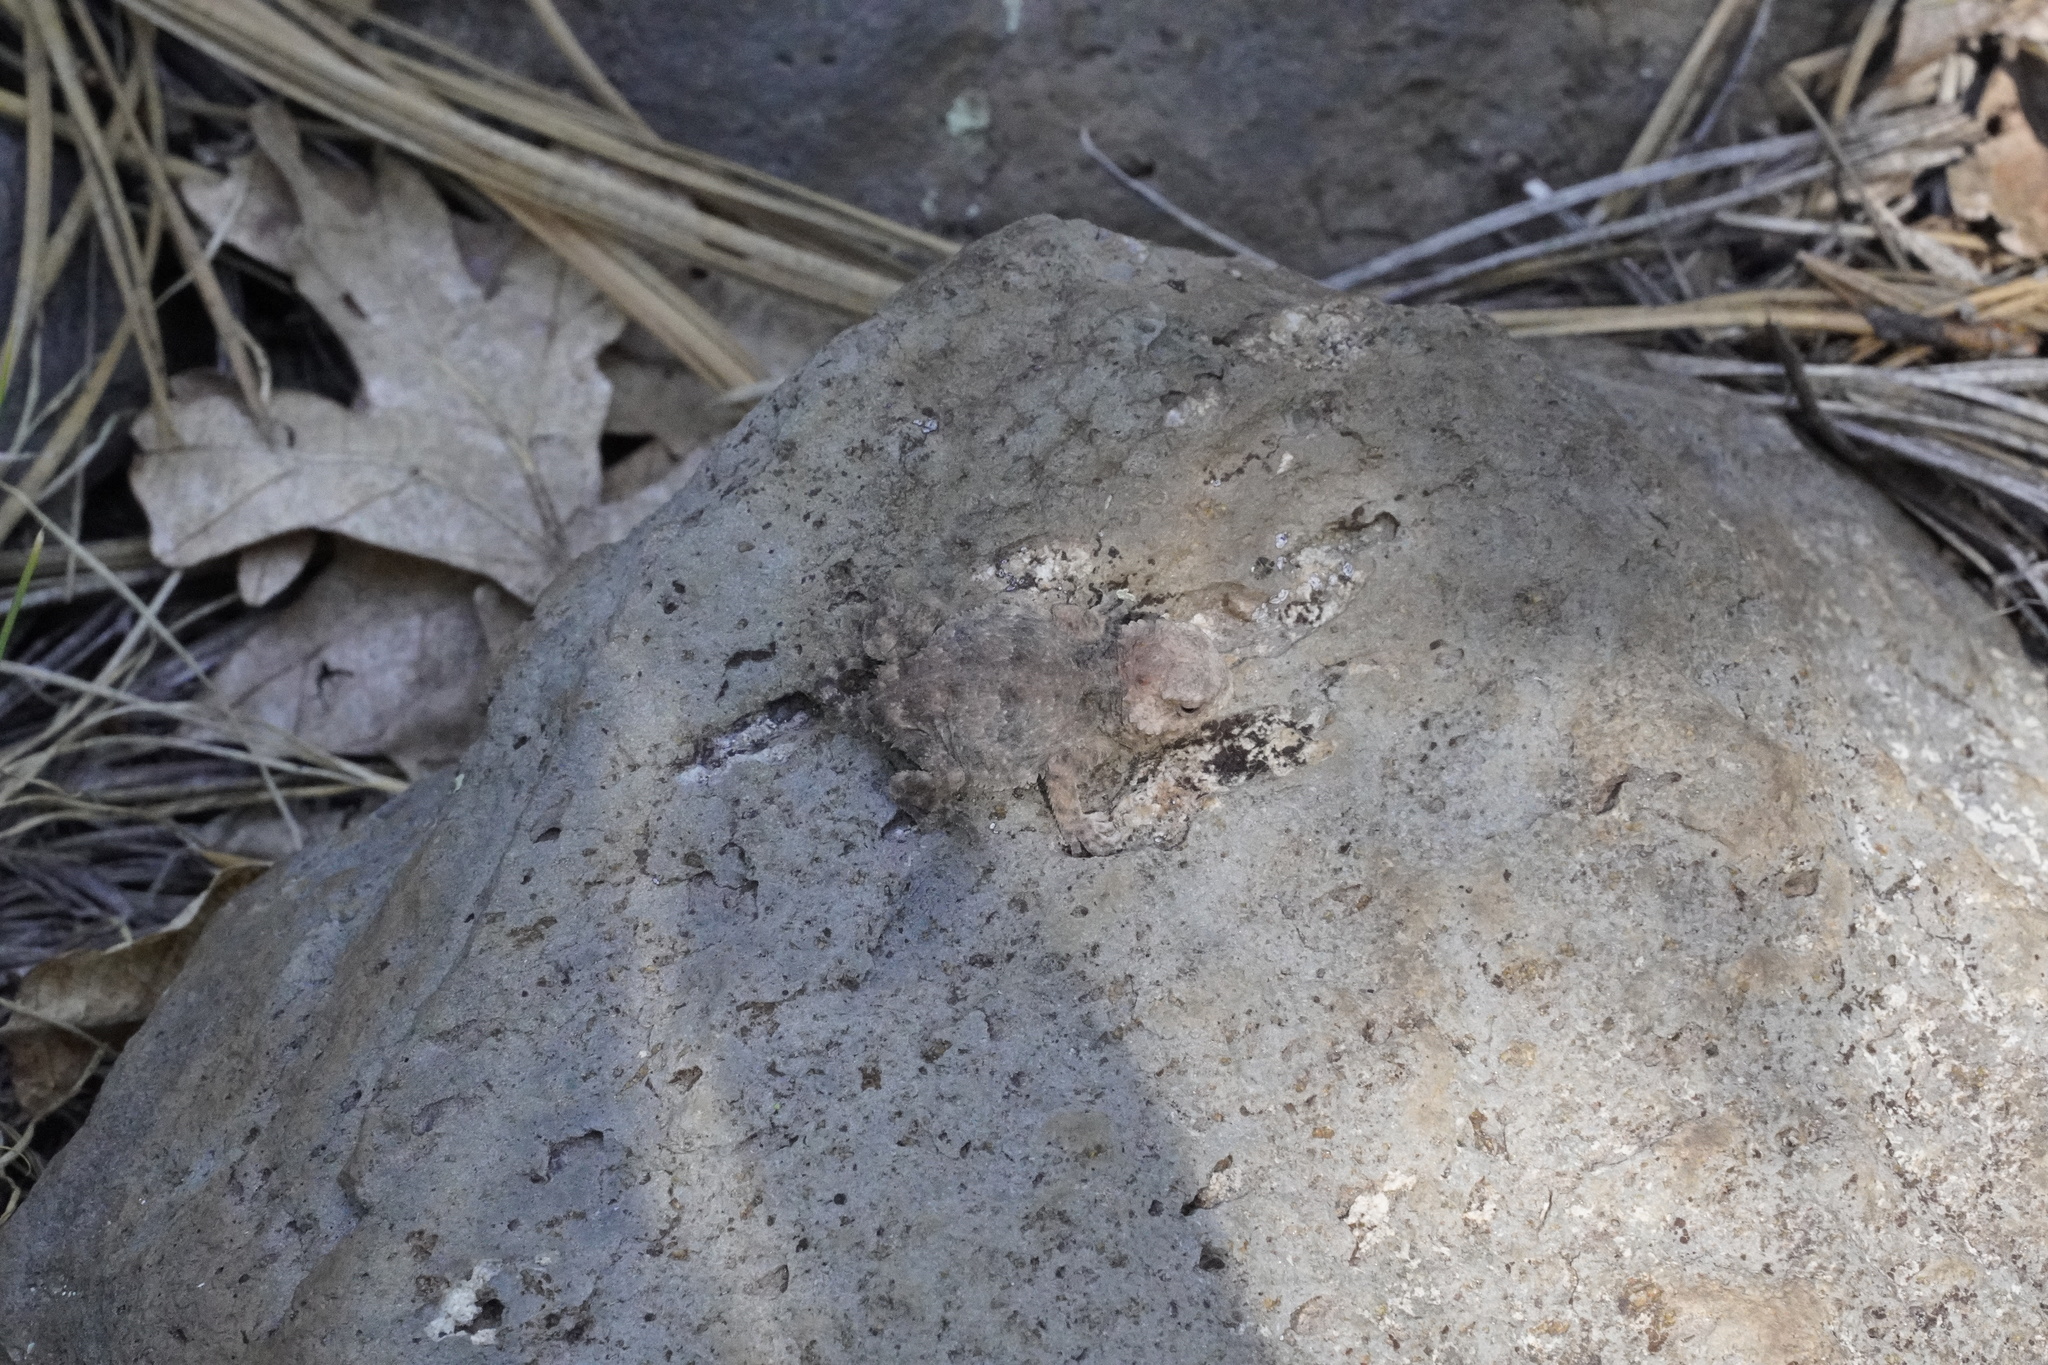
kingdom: Animalia
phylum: Chordata
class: Squamata
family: Phrynosomatidae
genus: Phrynosoma
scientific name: Phrynosoma hernandesi
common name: Greater short-horned lizard
